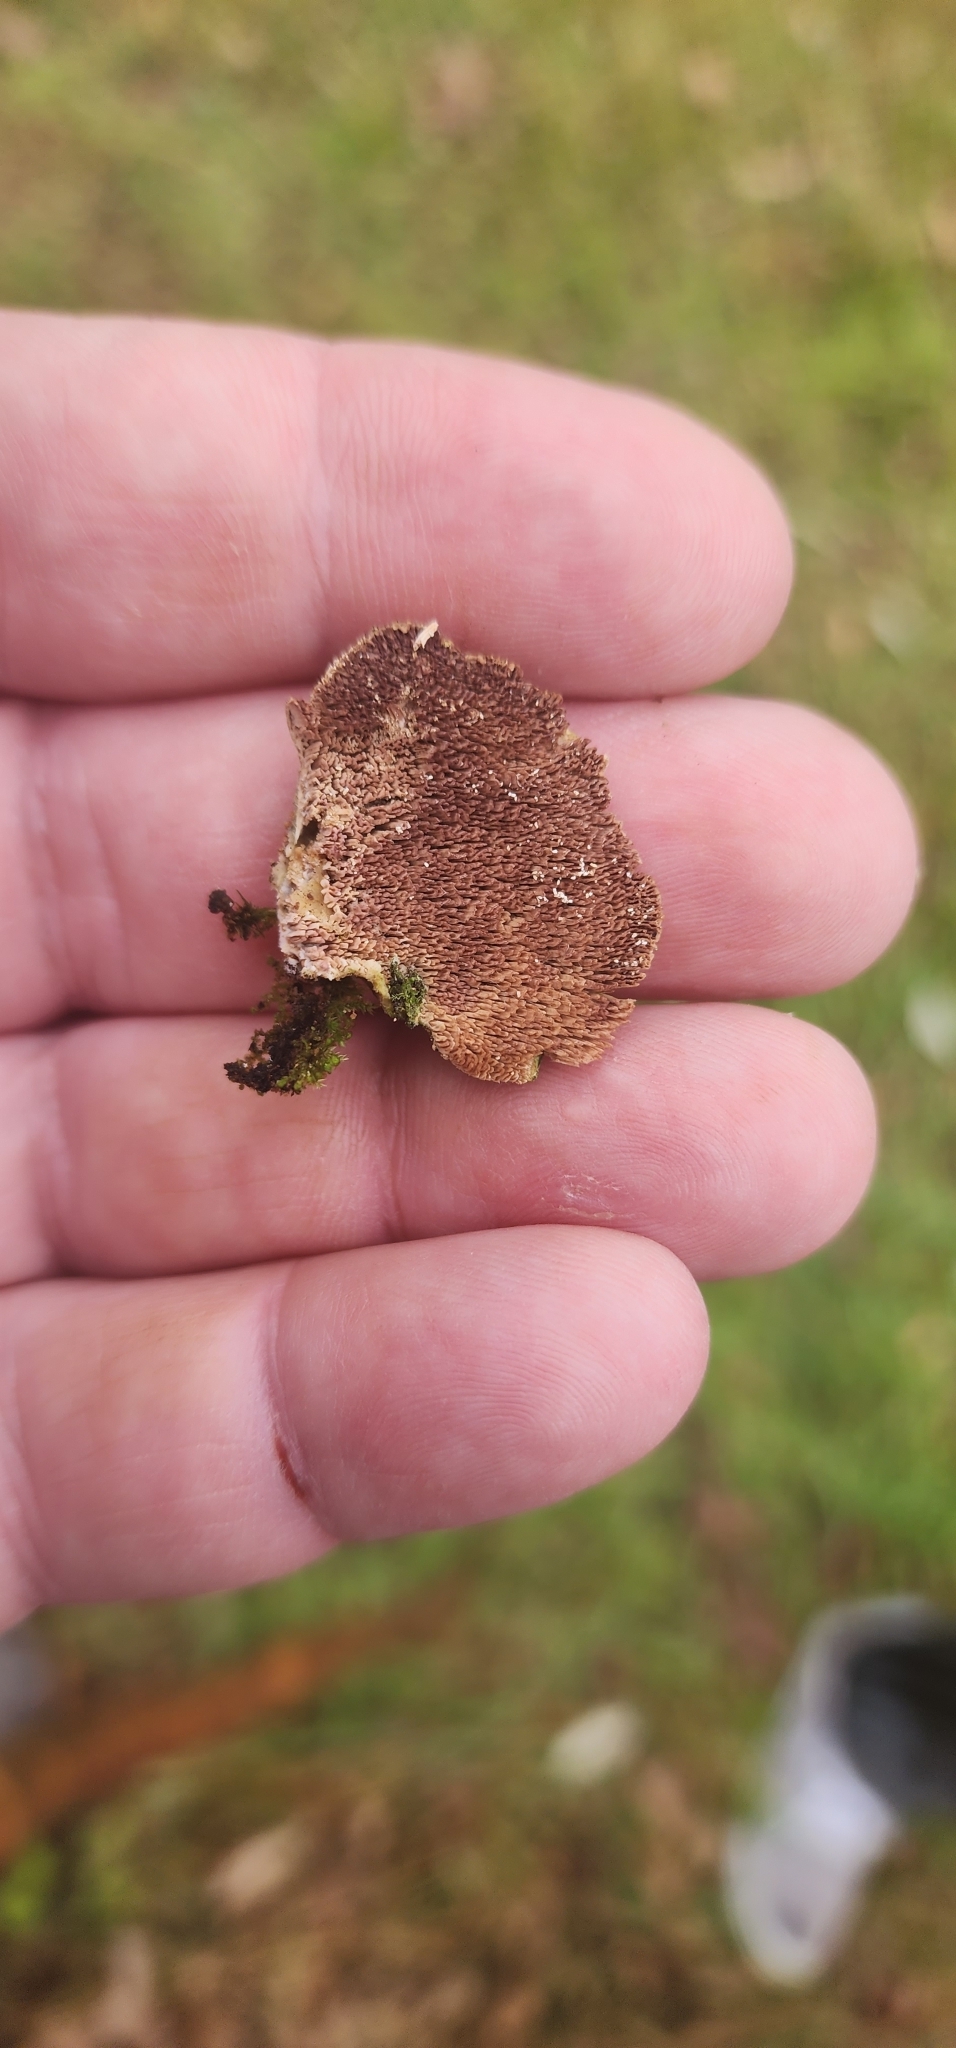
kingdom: Fungi
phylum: Basidiomycota
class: Agaricomycetes
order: Hymenochaetales
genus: Trichaptum
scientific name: Trichaptum abietinum
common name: Purplepore bracket
